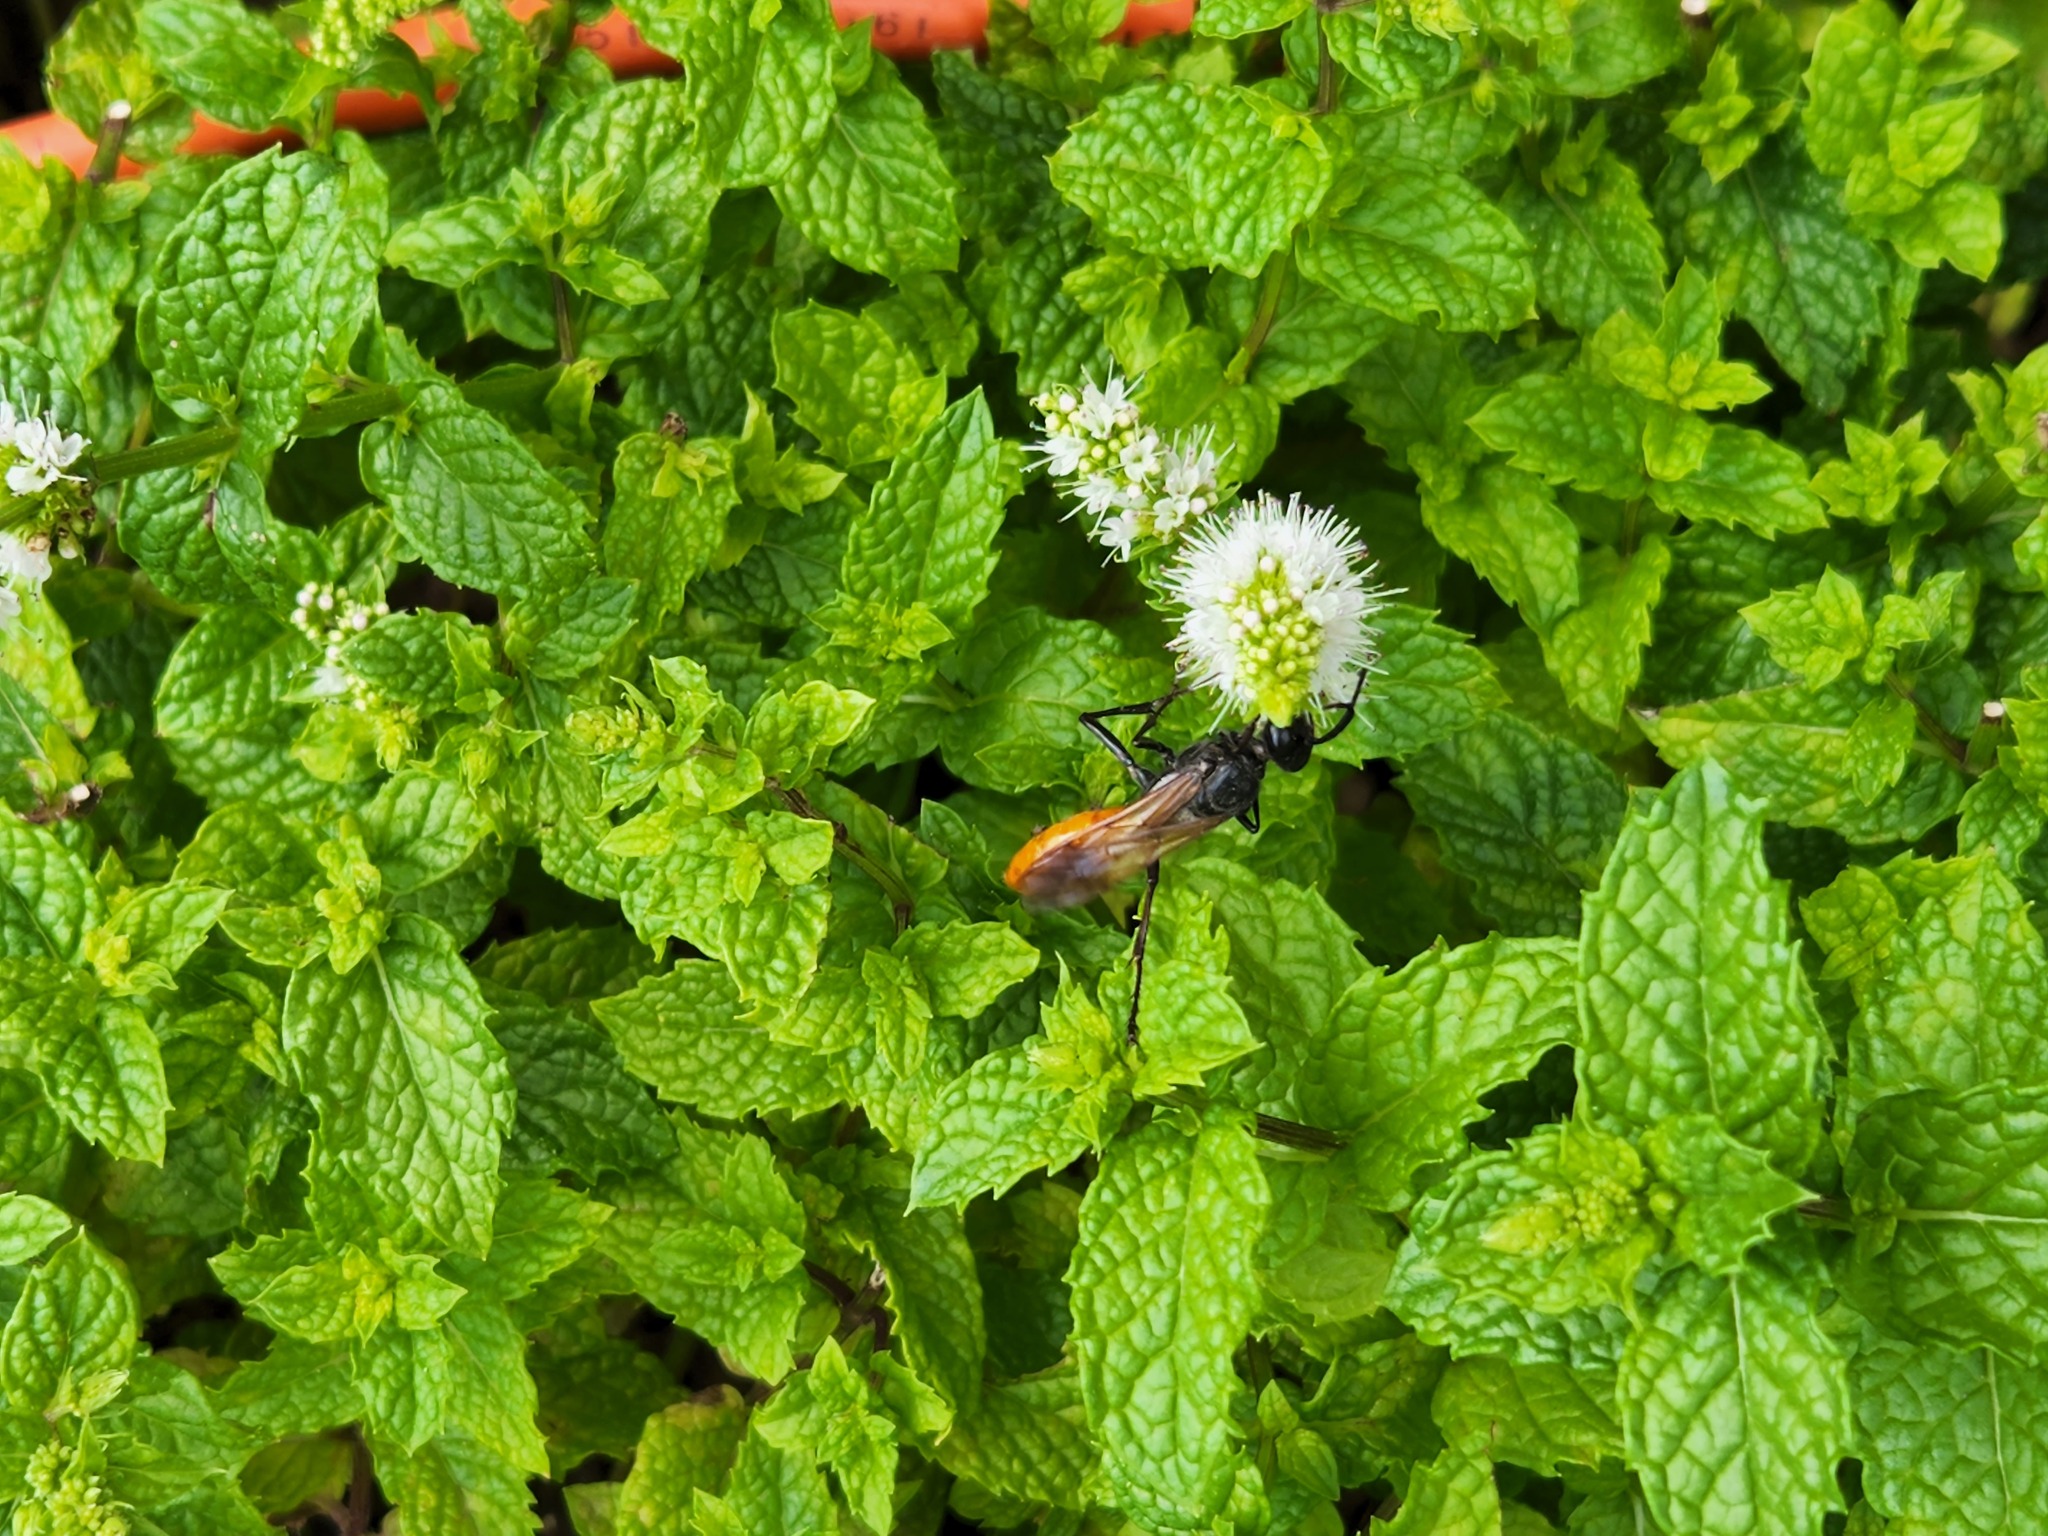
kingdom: Animalia
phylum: Arthropoda
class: Insecta
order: Hymenoptera
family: Sphecidae
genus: Sphex
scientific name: Sphex lucae
